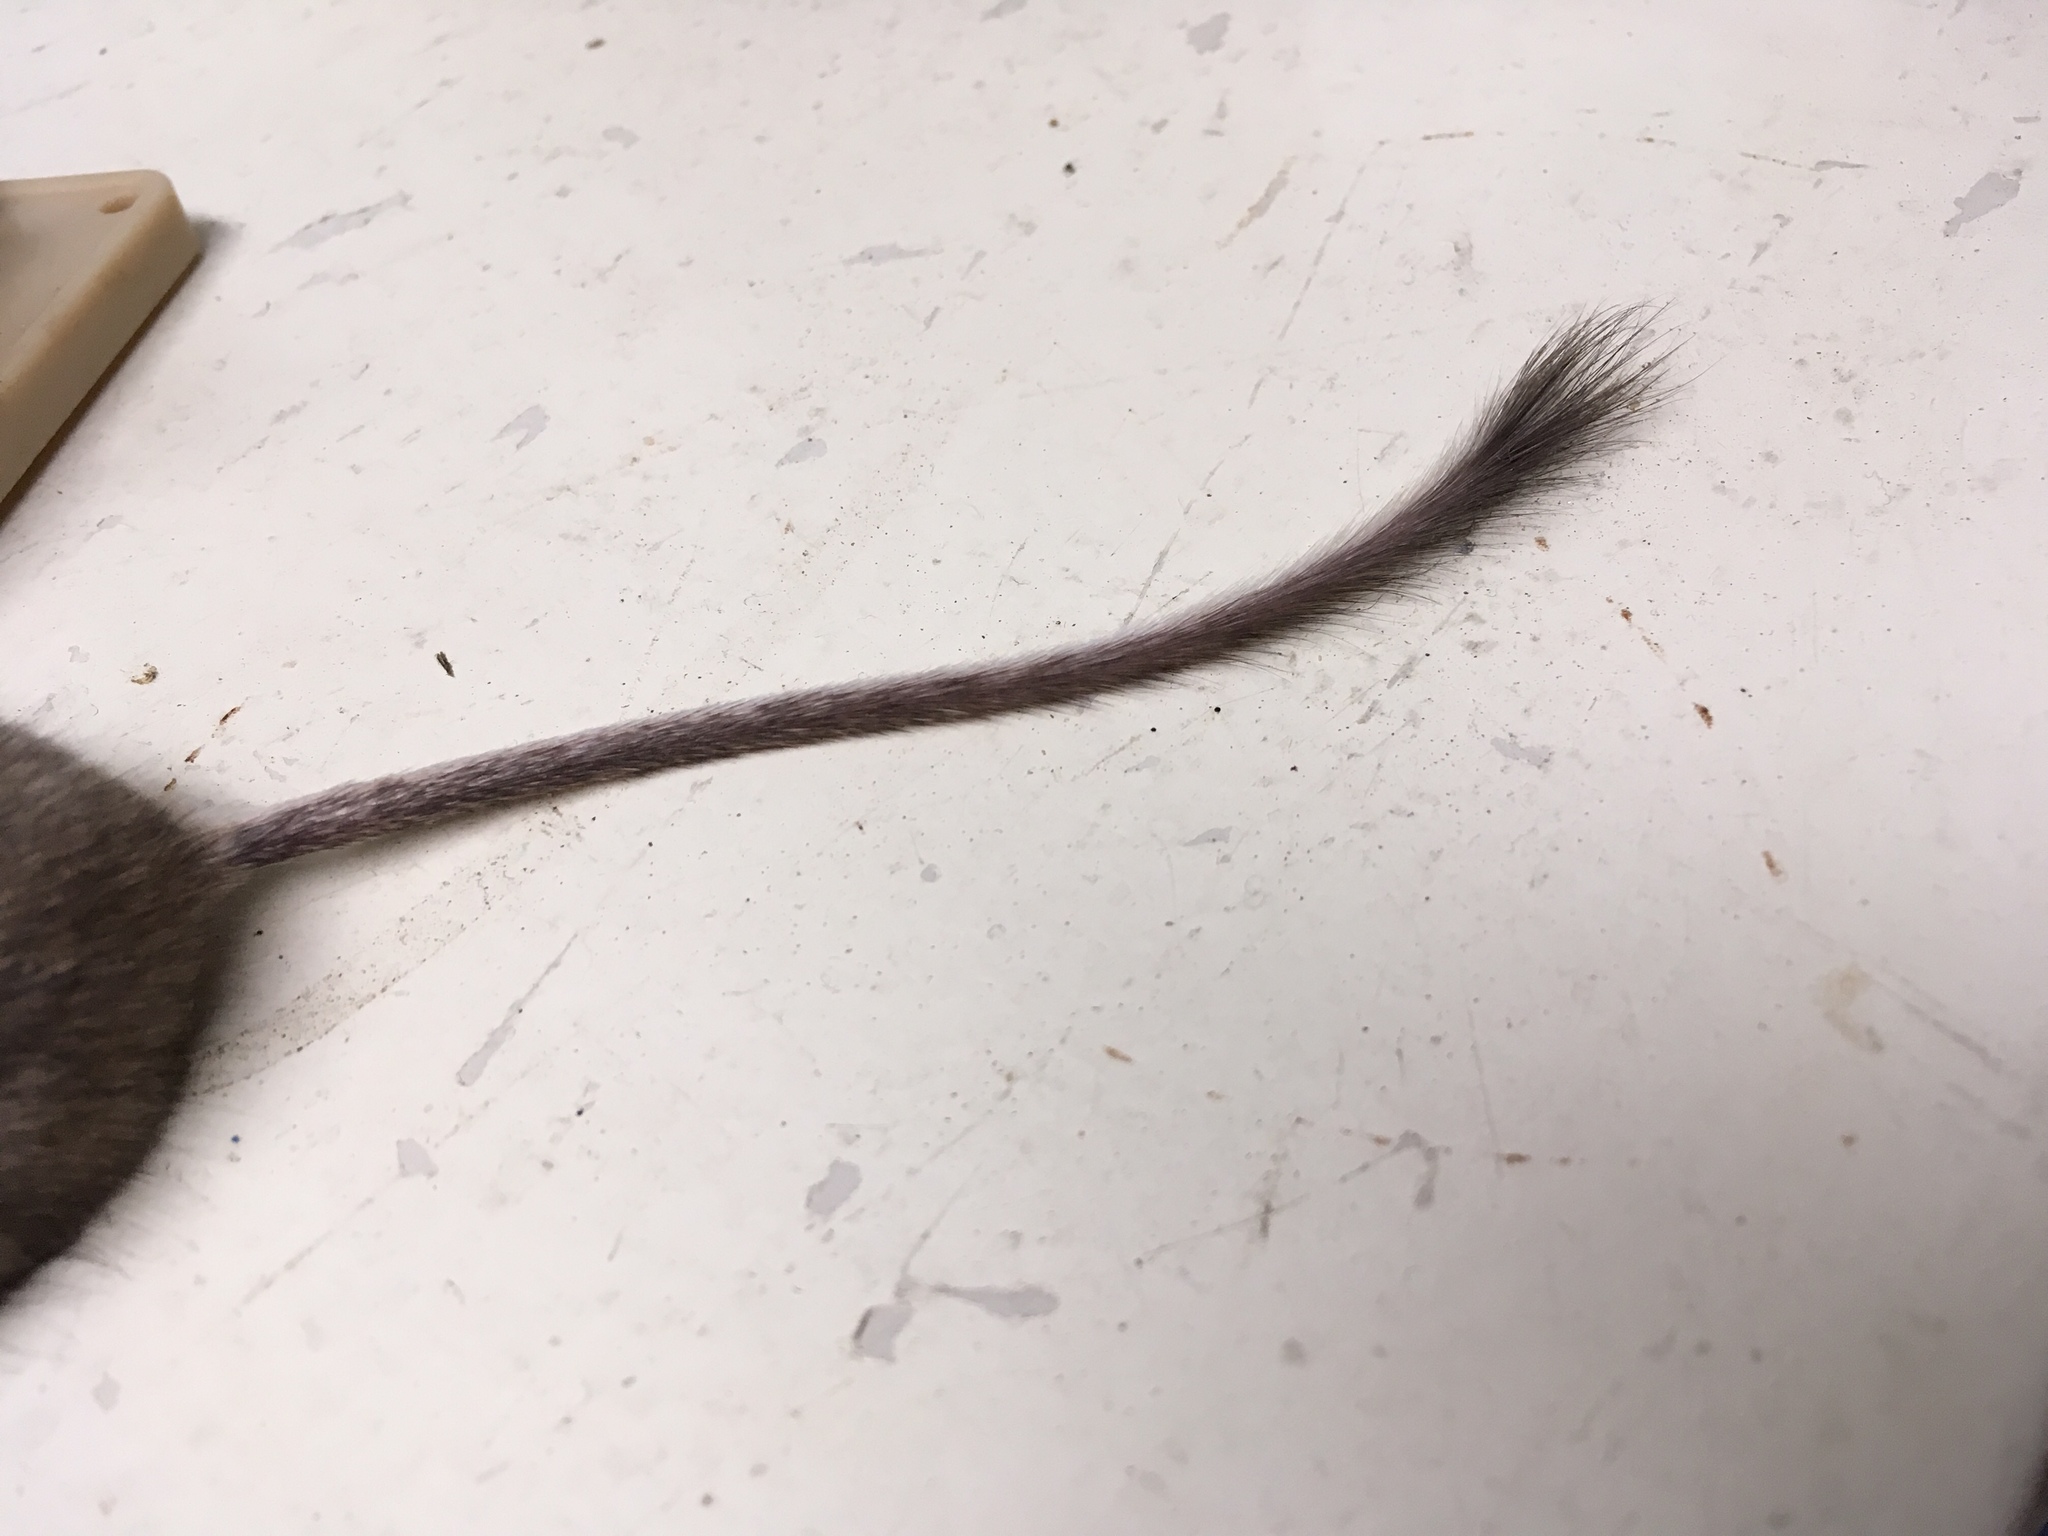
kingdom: Animalia
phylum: Chordata
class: Mammalia
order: Rodentia
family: Heteromyidae
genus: Chaetodipus
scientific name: Chaetodipus penicillatus
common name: Desert pocket mouse
